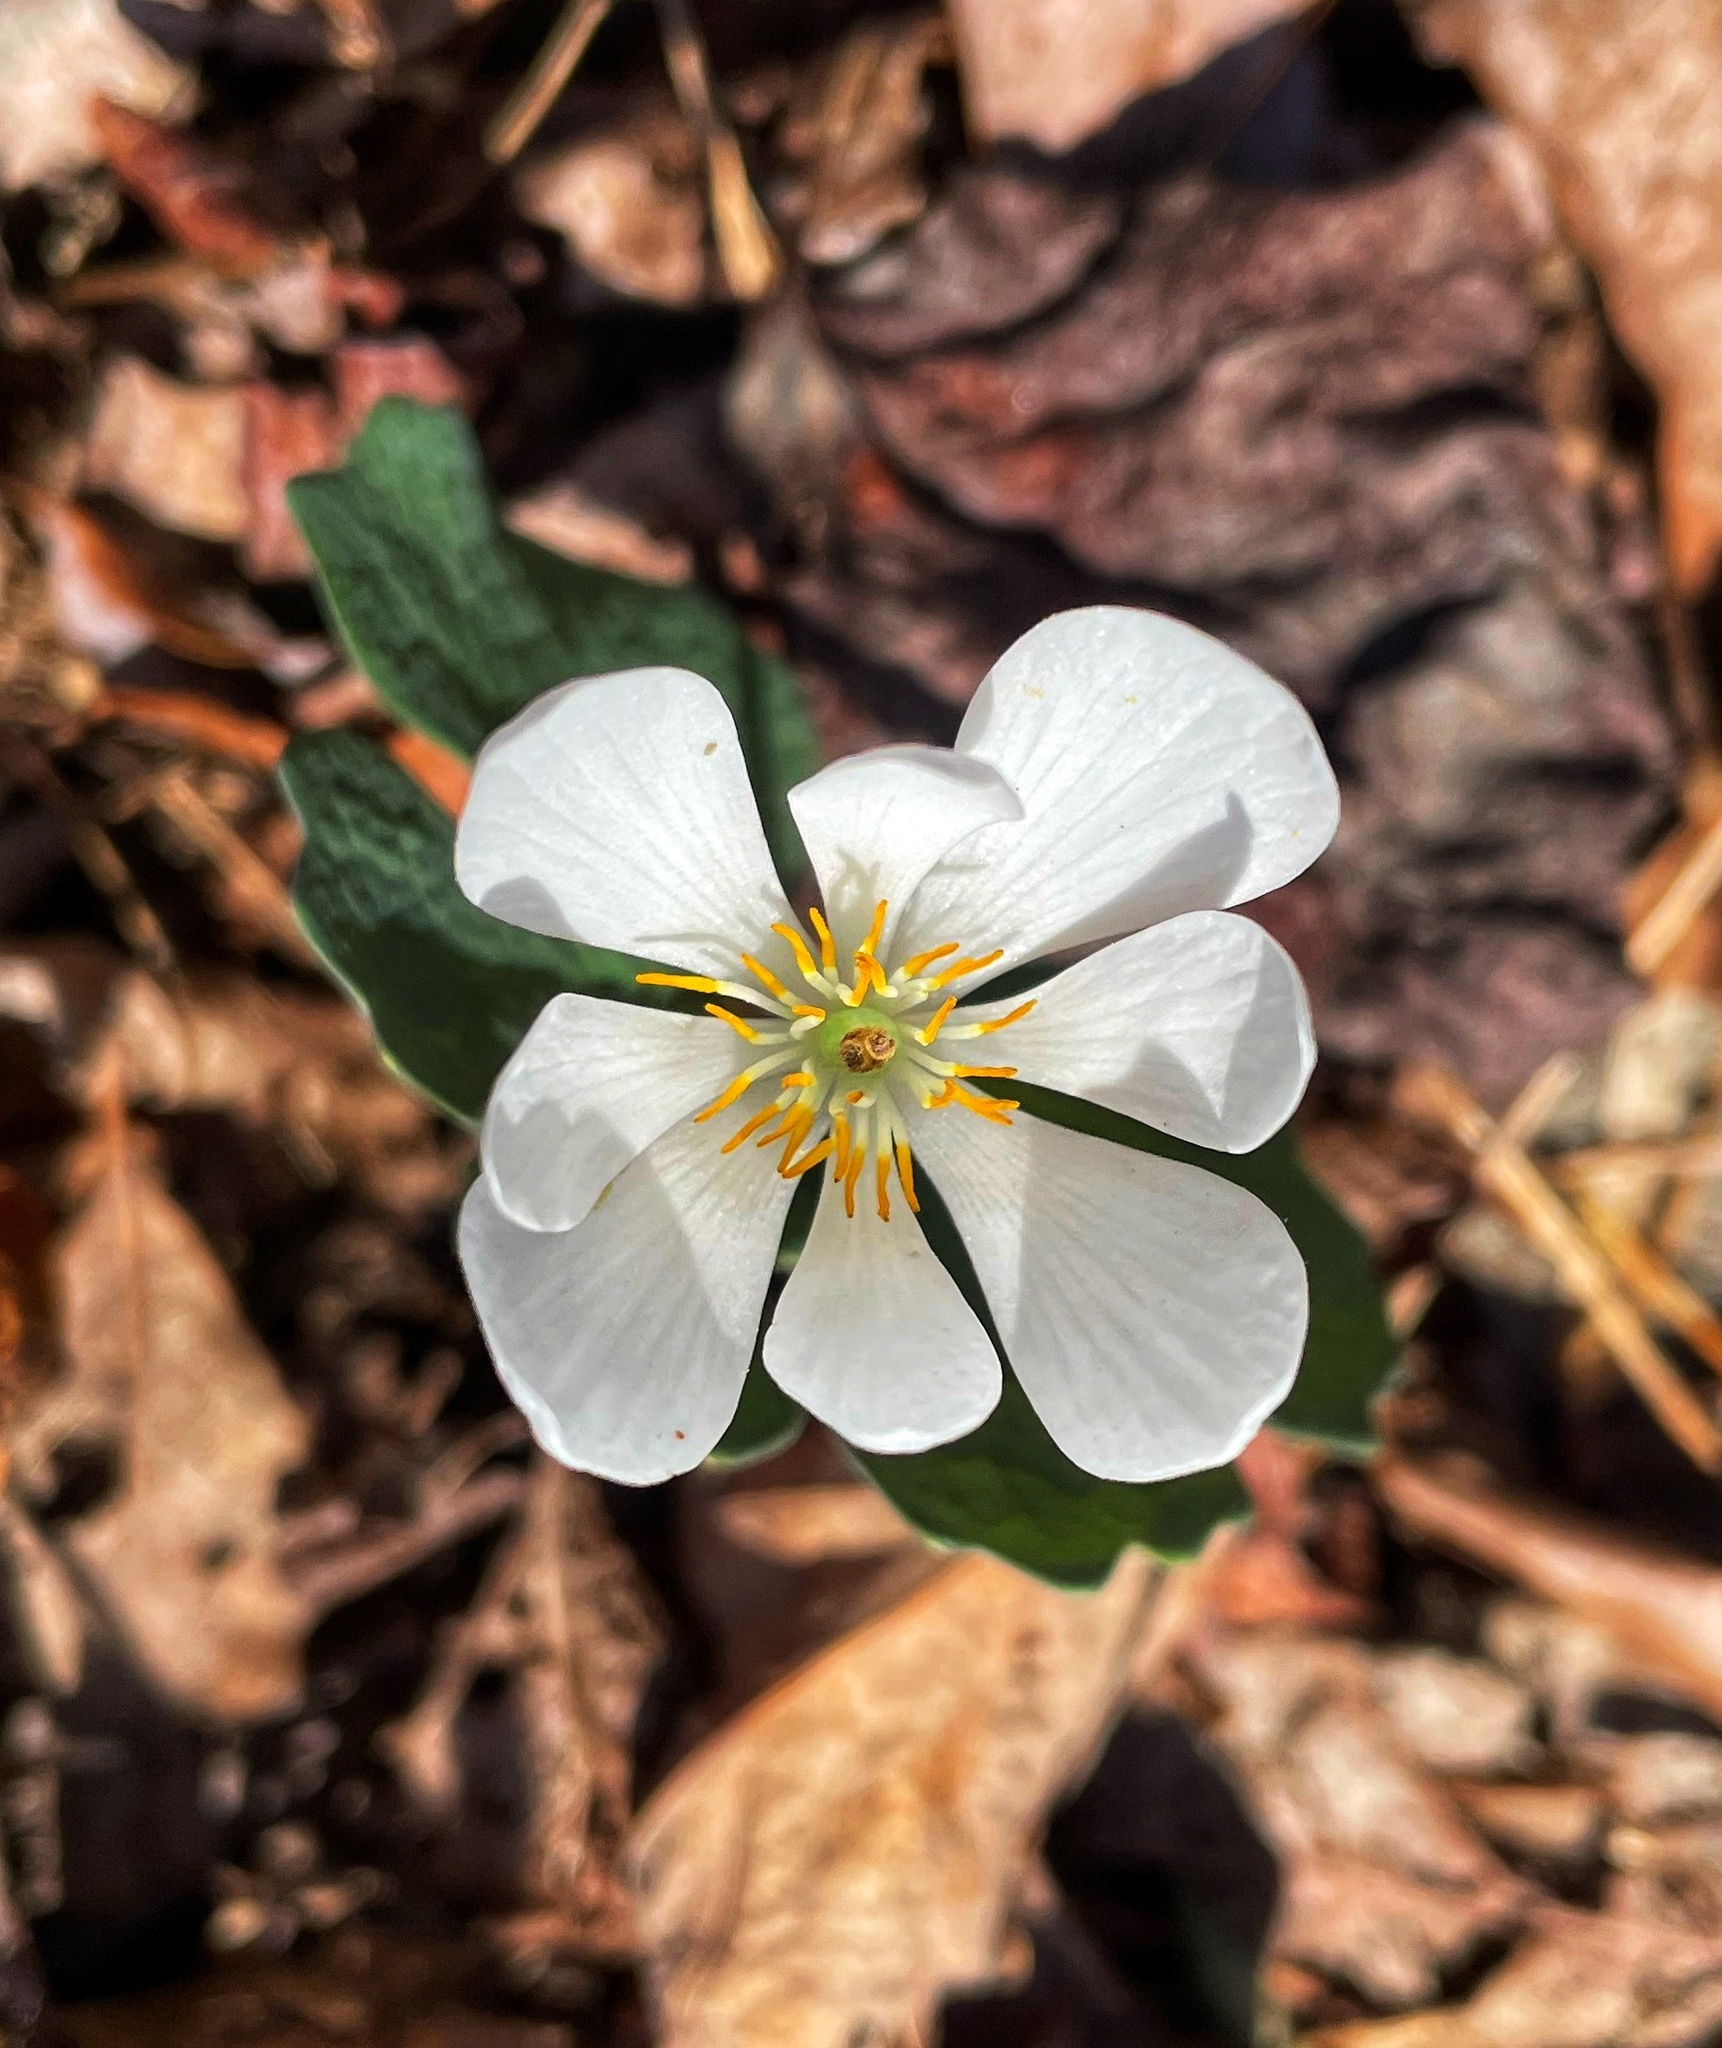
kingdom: Plantae
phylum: Tracheophyta
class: Magnoliopsida
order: Ranunculales
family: Papaveraceae
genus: Sanguinaria
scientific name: Sanguinaria canadensis
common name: Bloodroot
